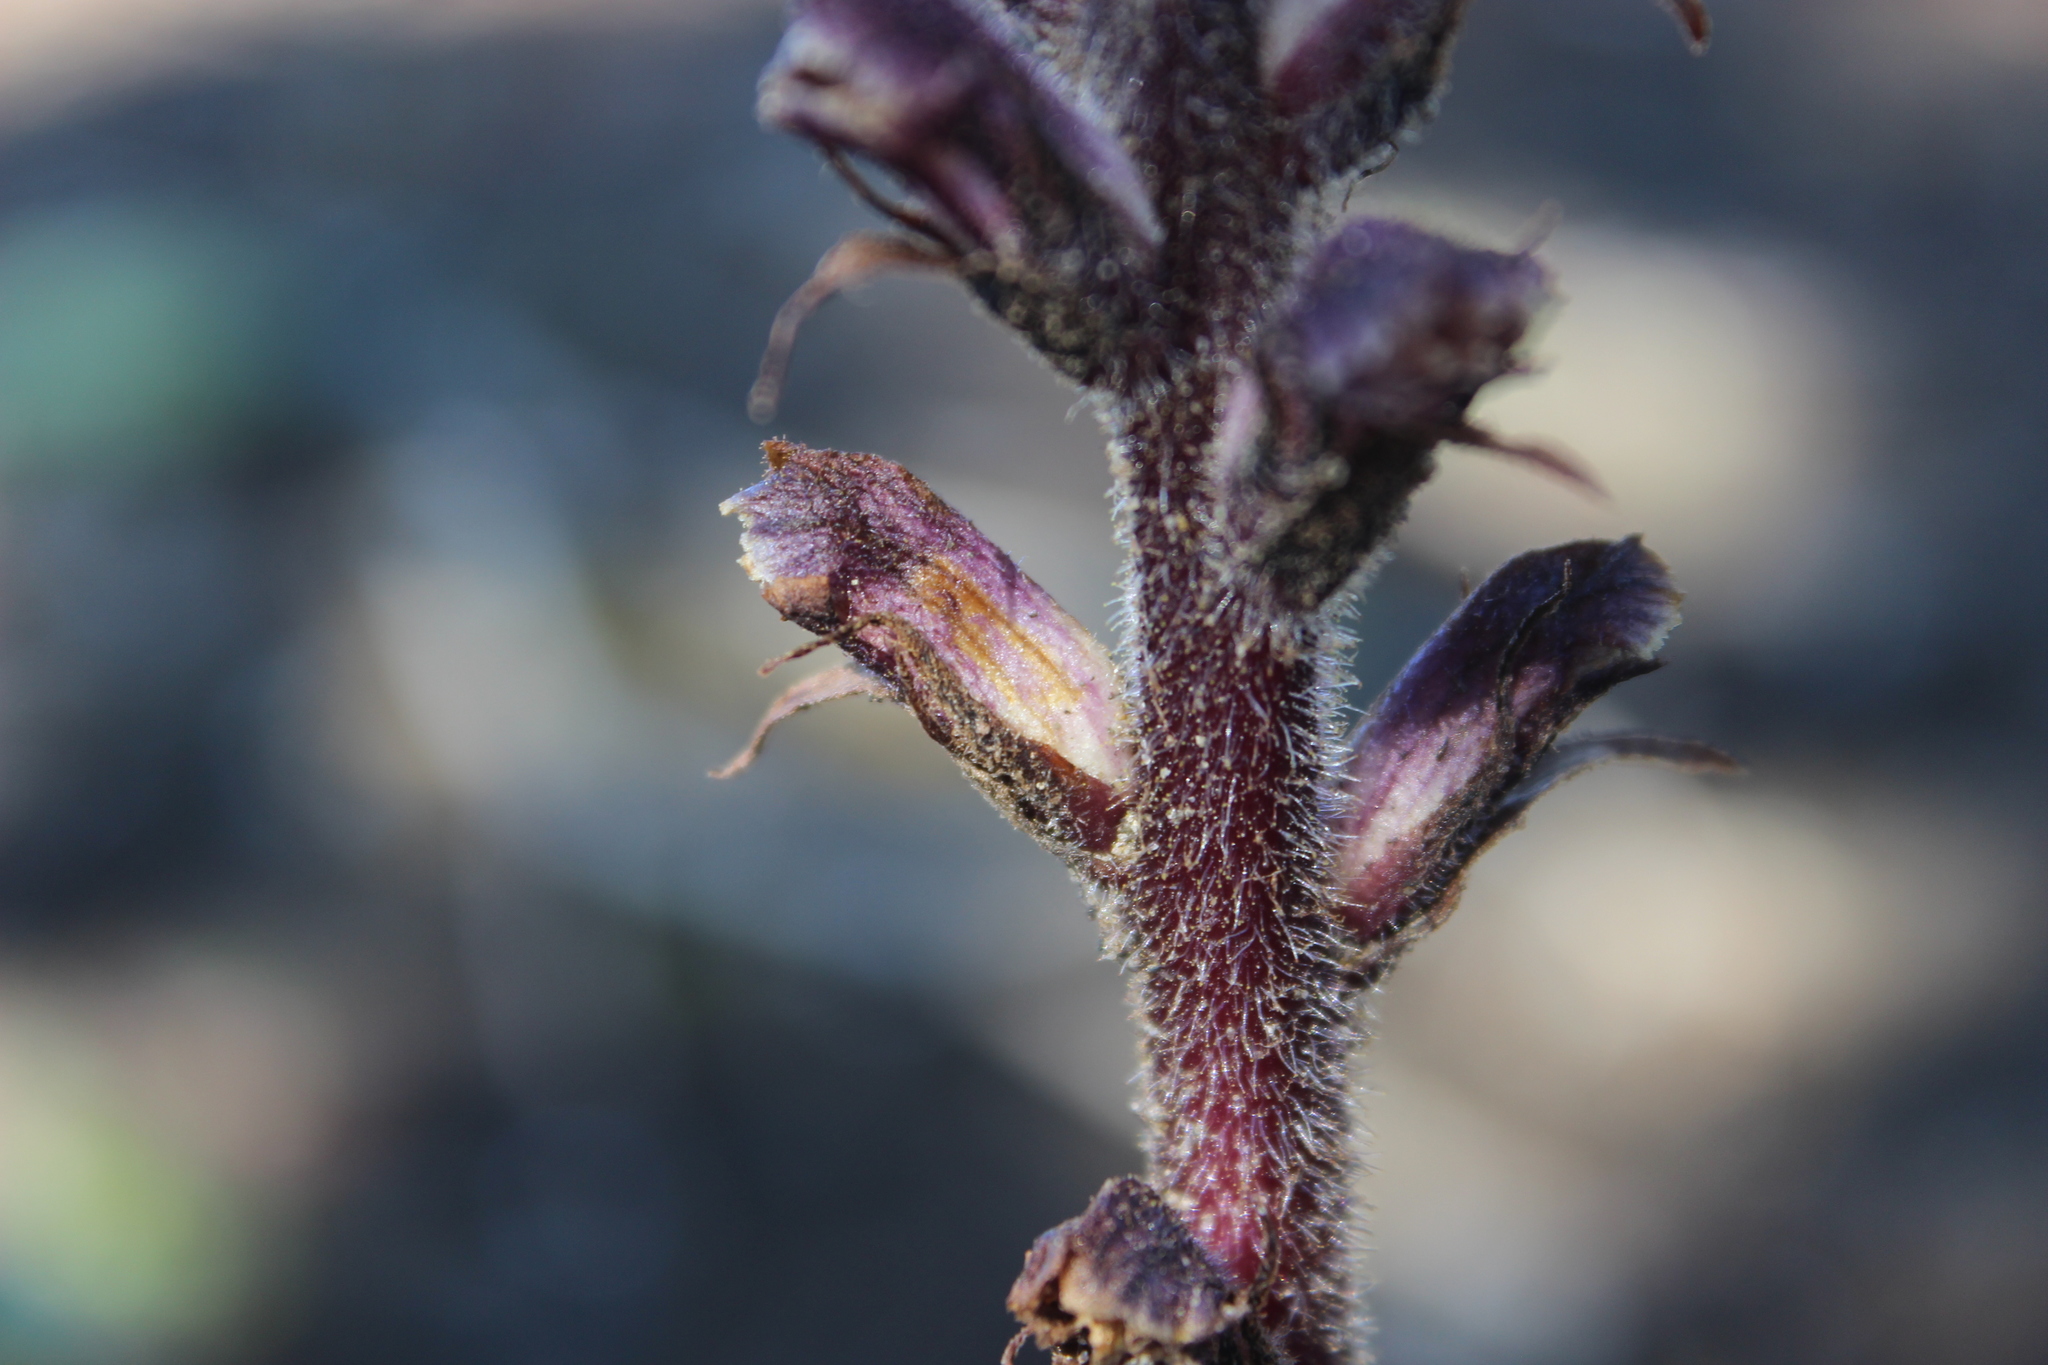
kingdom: Plantae
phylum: Tracheophyta
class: Magnoliopsida
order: Lamiales
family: Orobanchaceae
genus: Orobanche
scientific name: Orobanche minor
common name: Common broomrape
